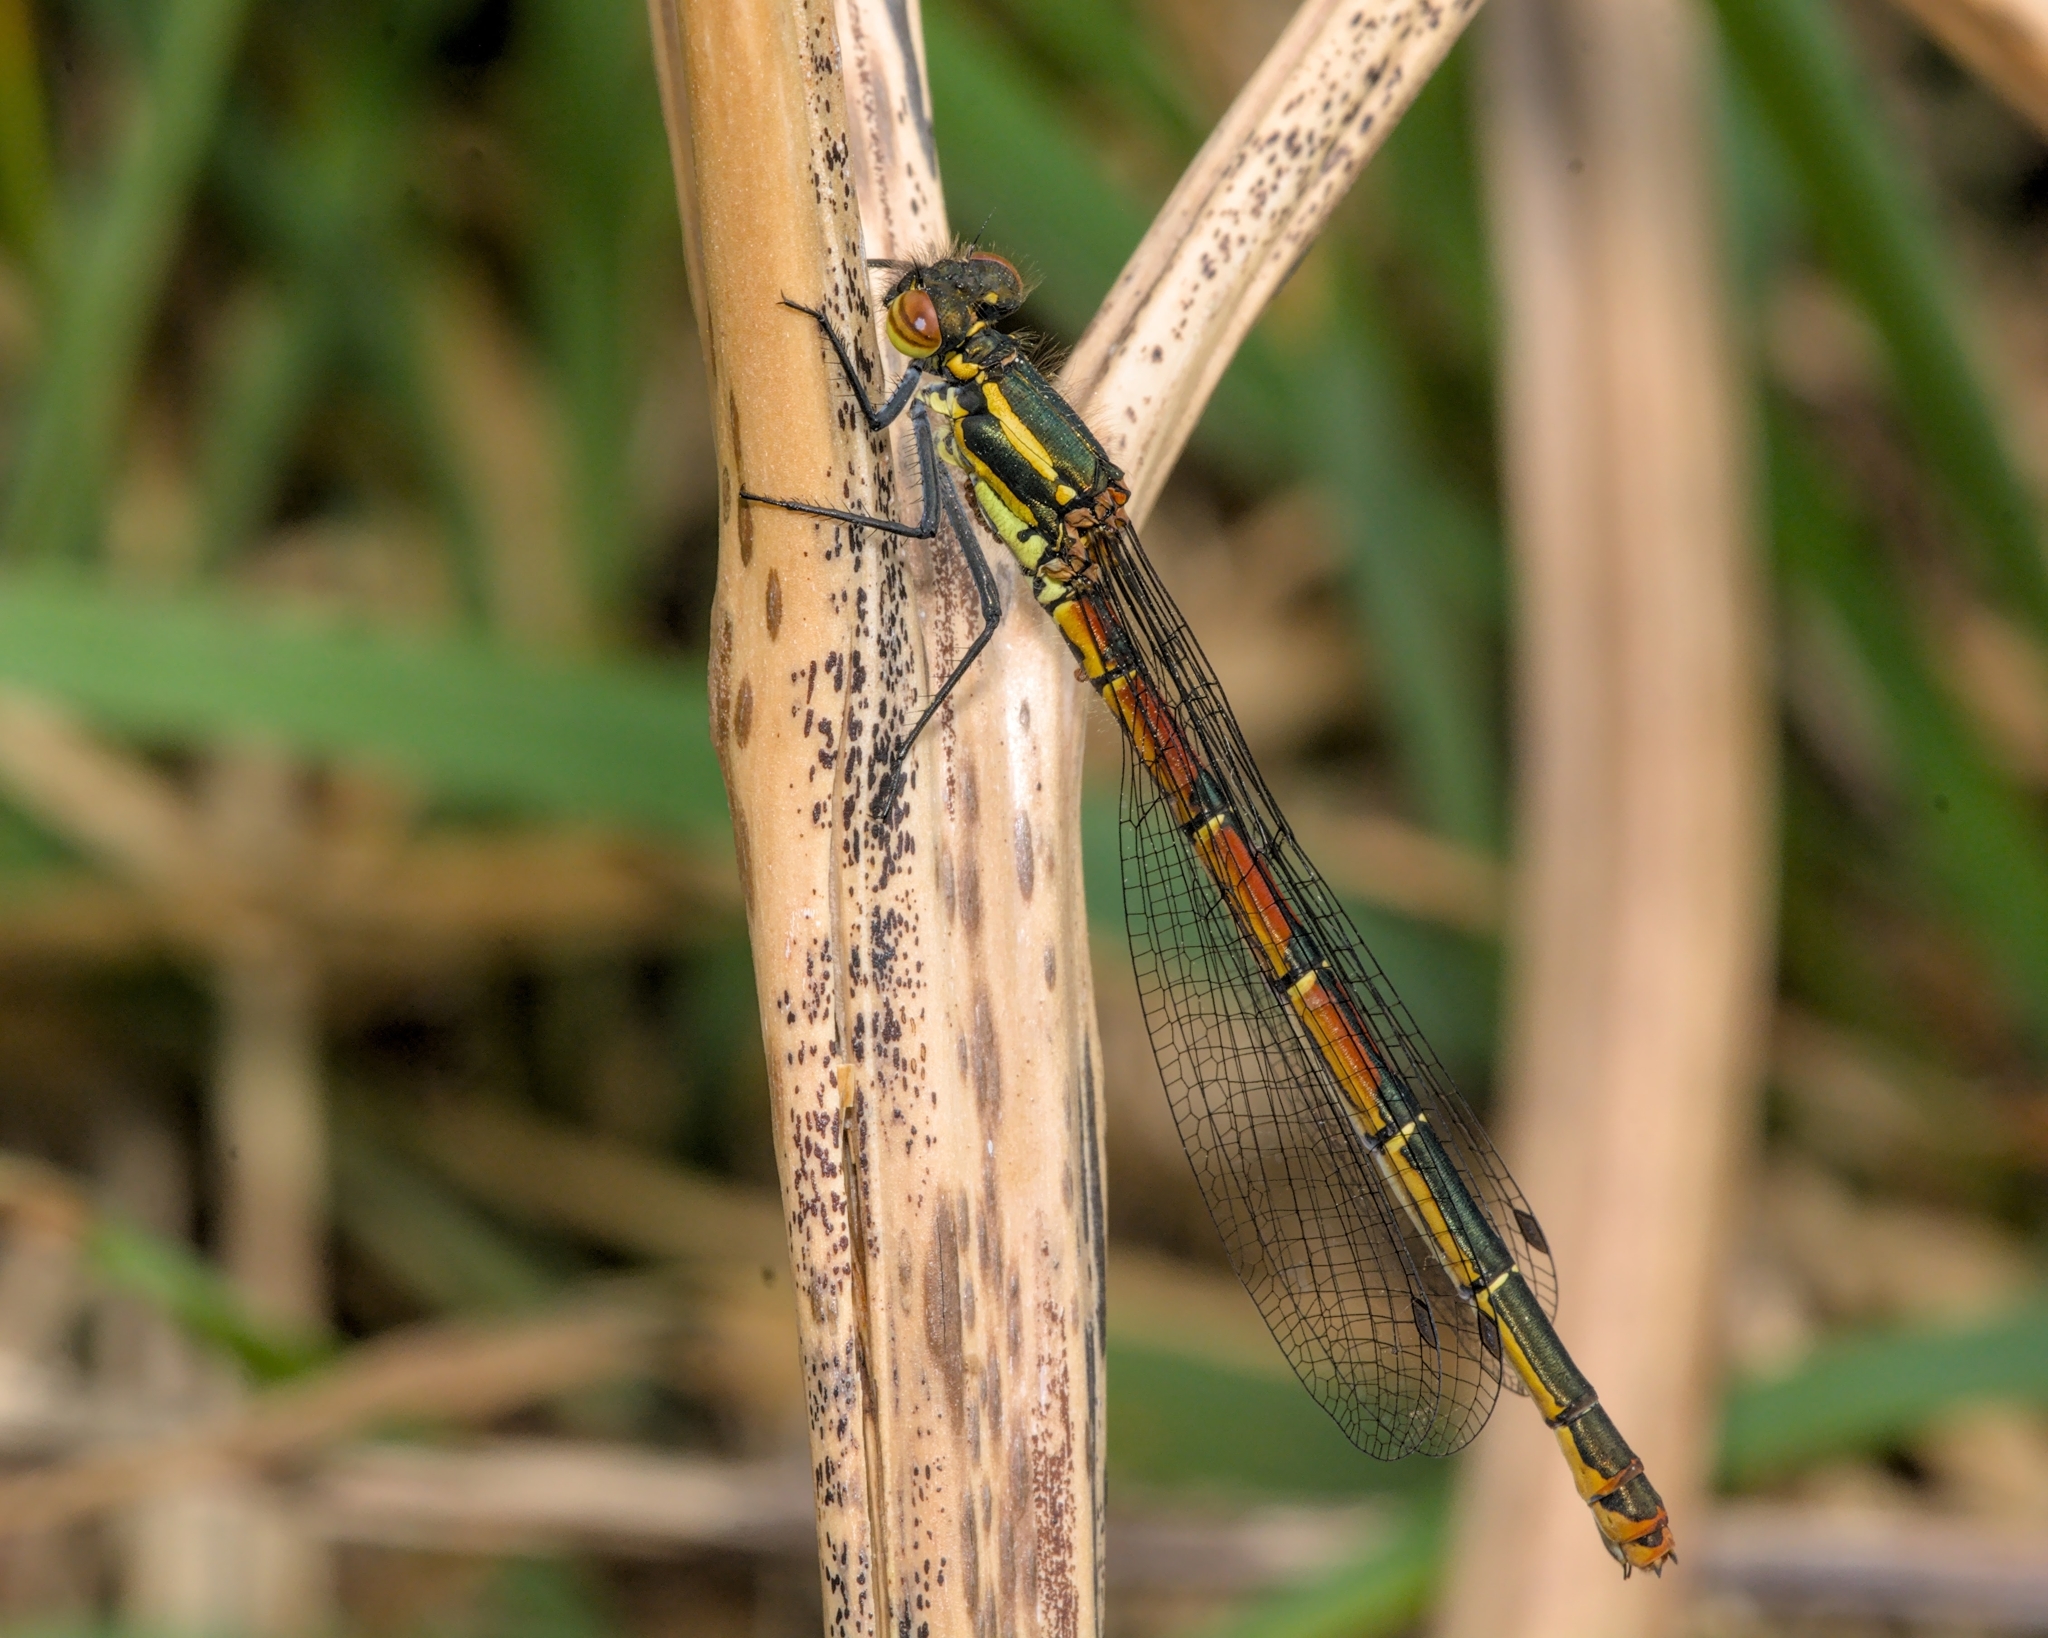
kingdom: Animalia
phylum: Arthropoda
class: Insecta
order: Odonata
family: Coenagrionidae
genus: Pyrrhosoma
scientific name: Pyrrhosoma nymphula
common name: Large red damsel
